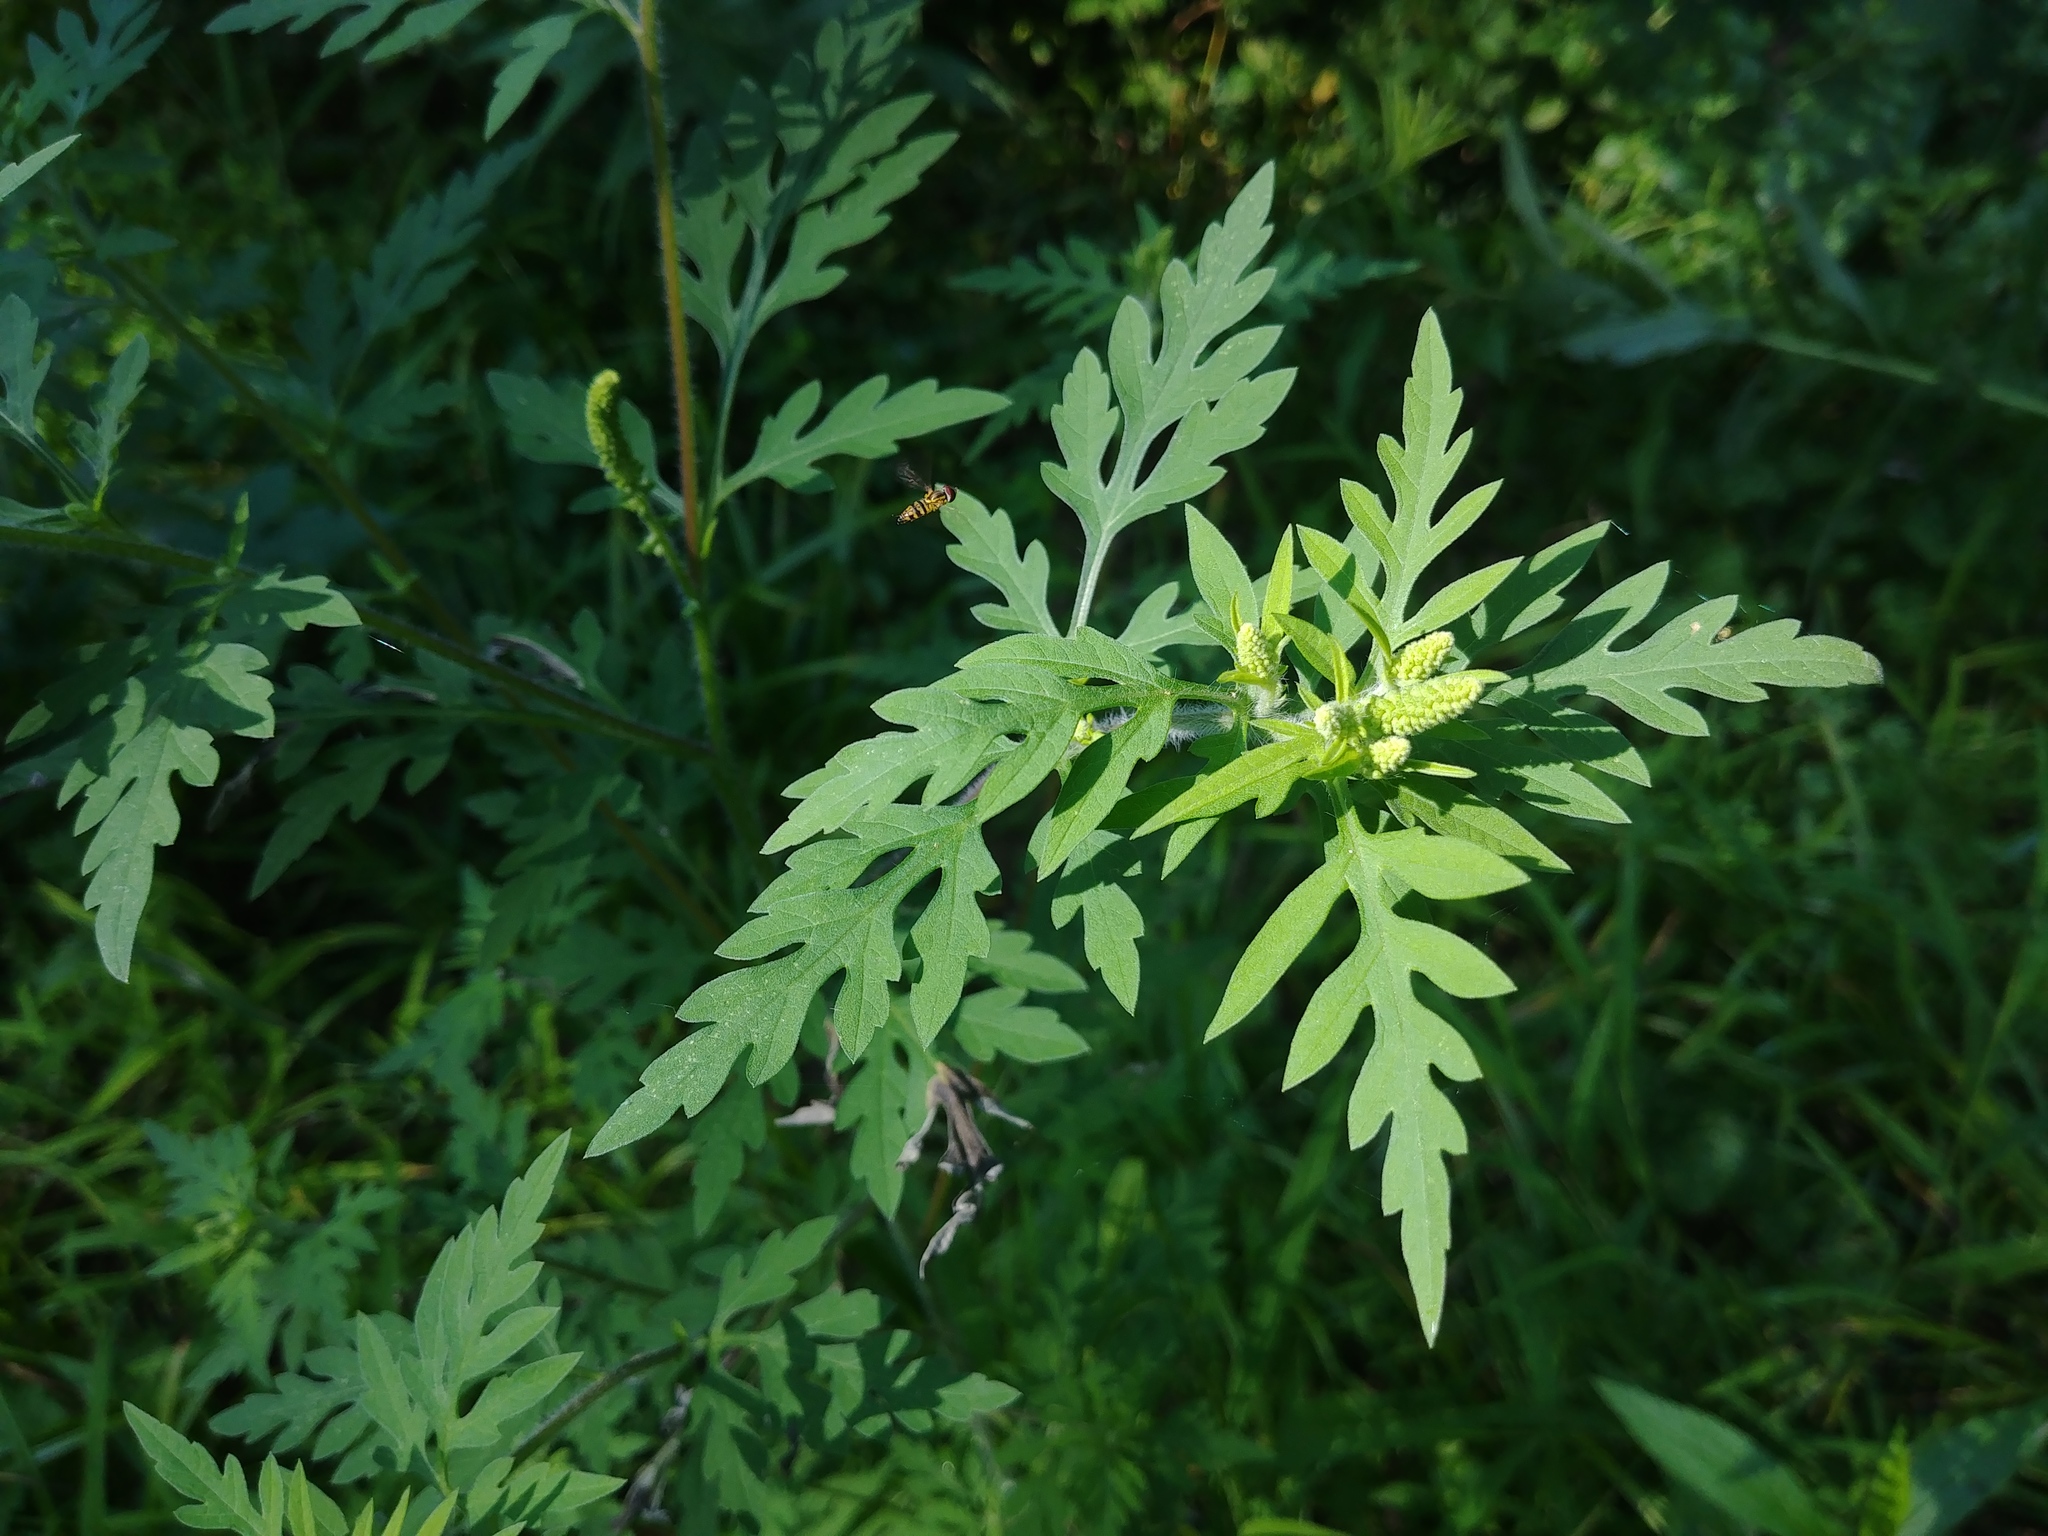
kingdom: Plantae
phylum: Tracheophyta
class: Magnoliopsida
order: Asterales
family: Asteraceae
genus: Ambrosia
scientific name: Ambrosia artemisiifolia
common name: Annual ragweed
